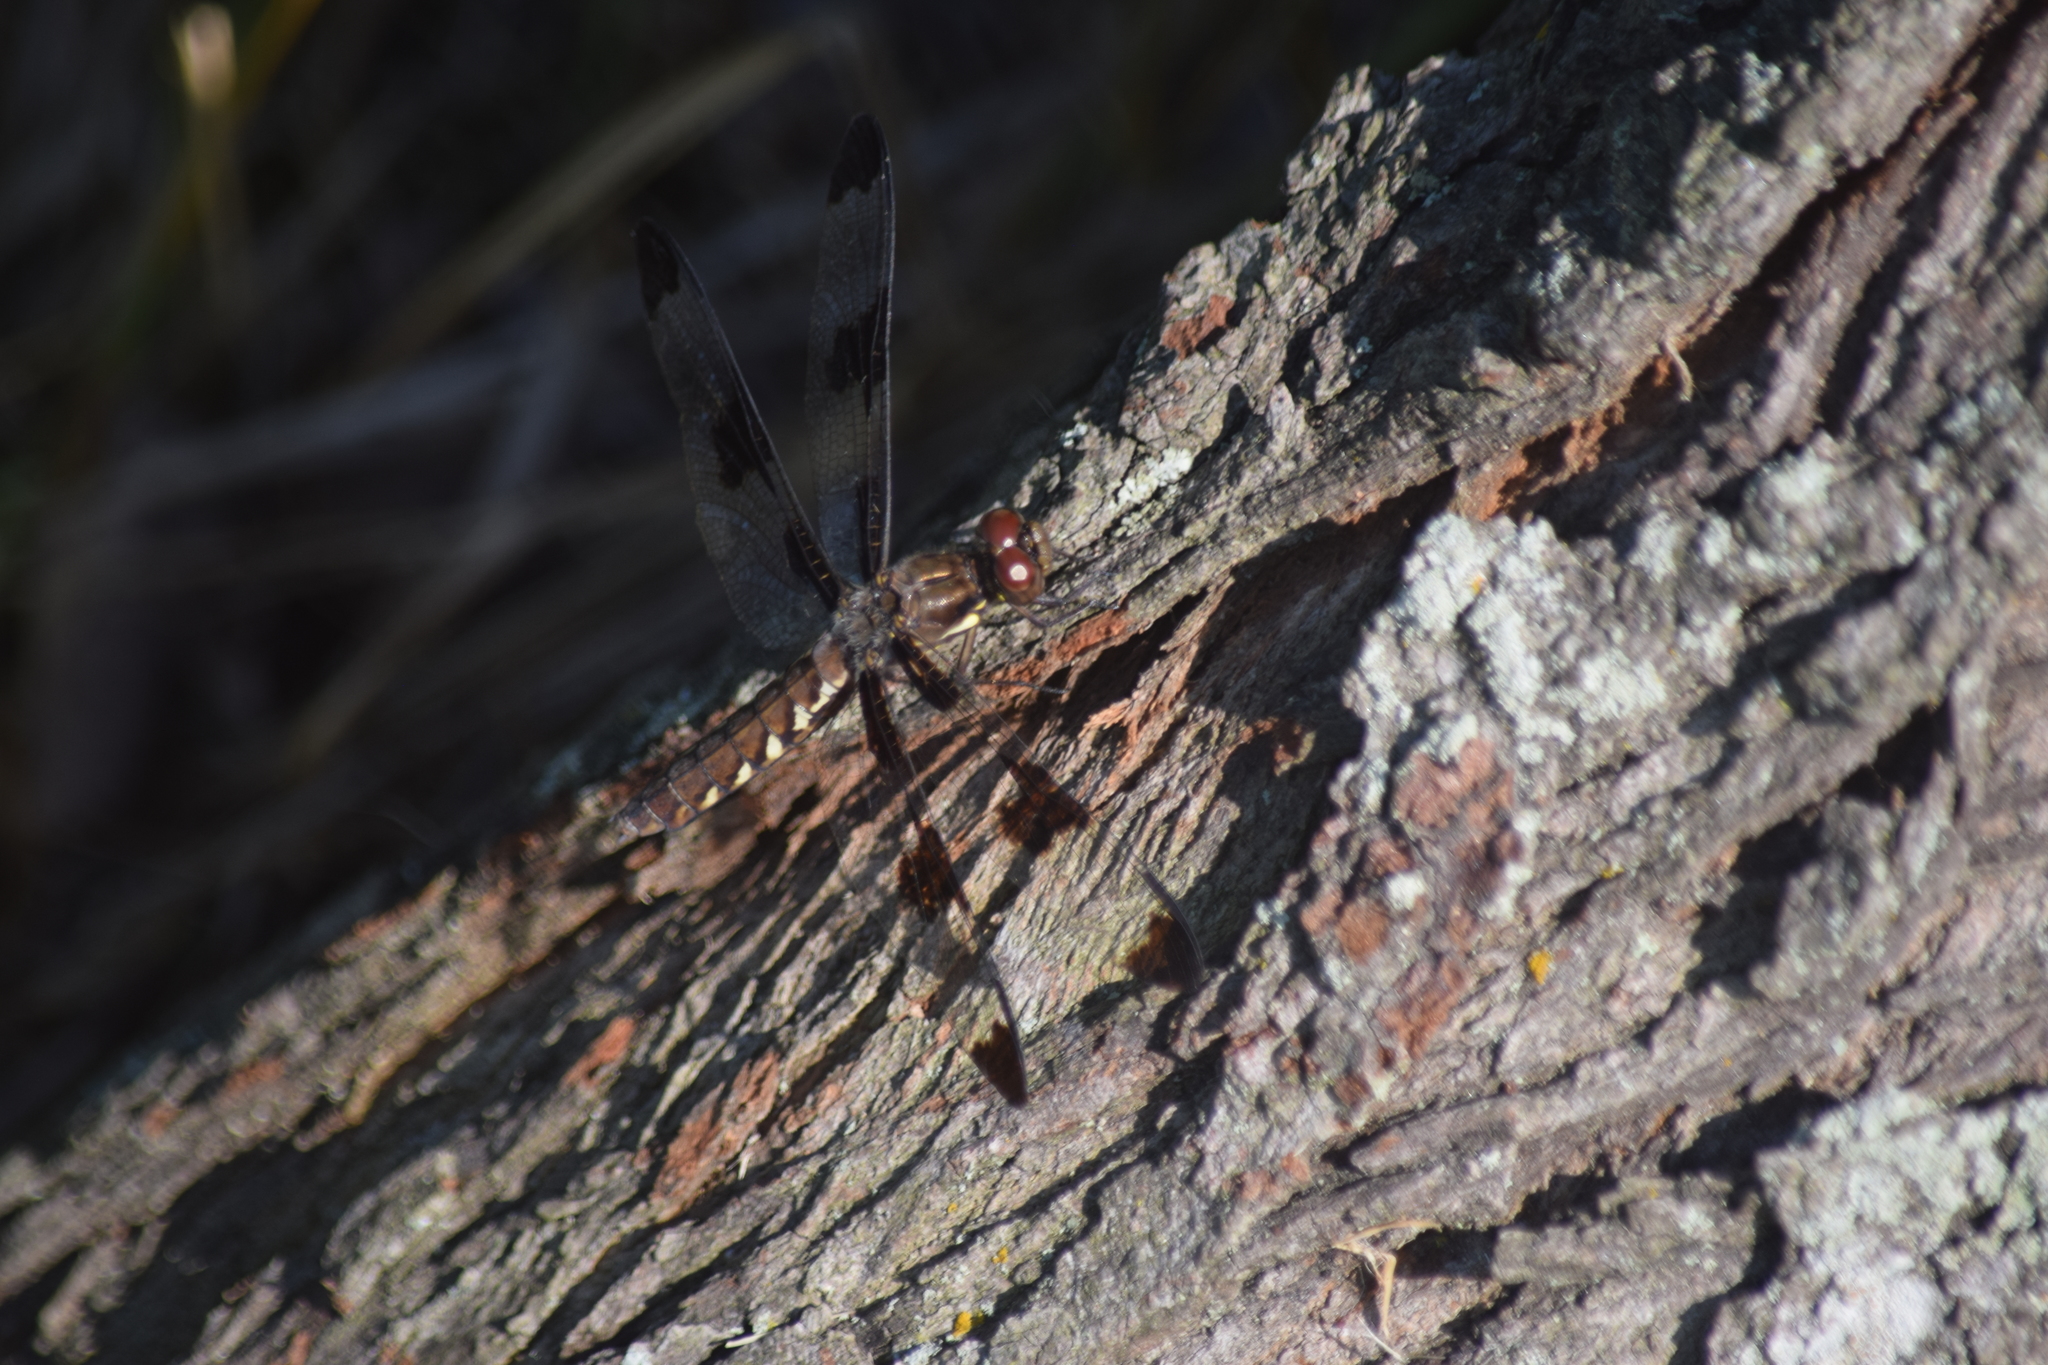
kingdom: Animalia
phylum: Arthropoda
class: Insecta
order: Odonata
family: Libellulidae
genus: Plathemis
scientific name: Plathemis lydia
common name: Common whitetail
